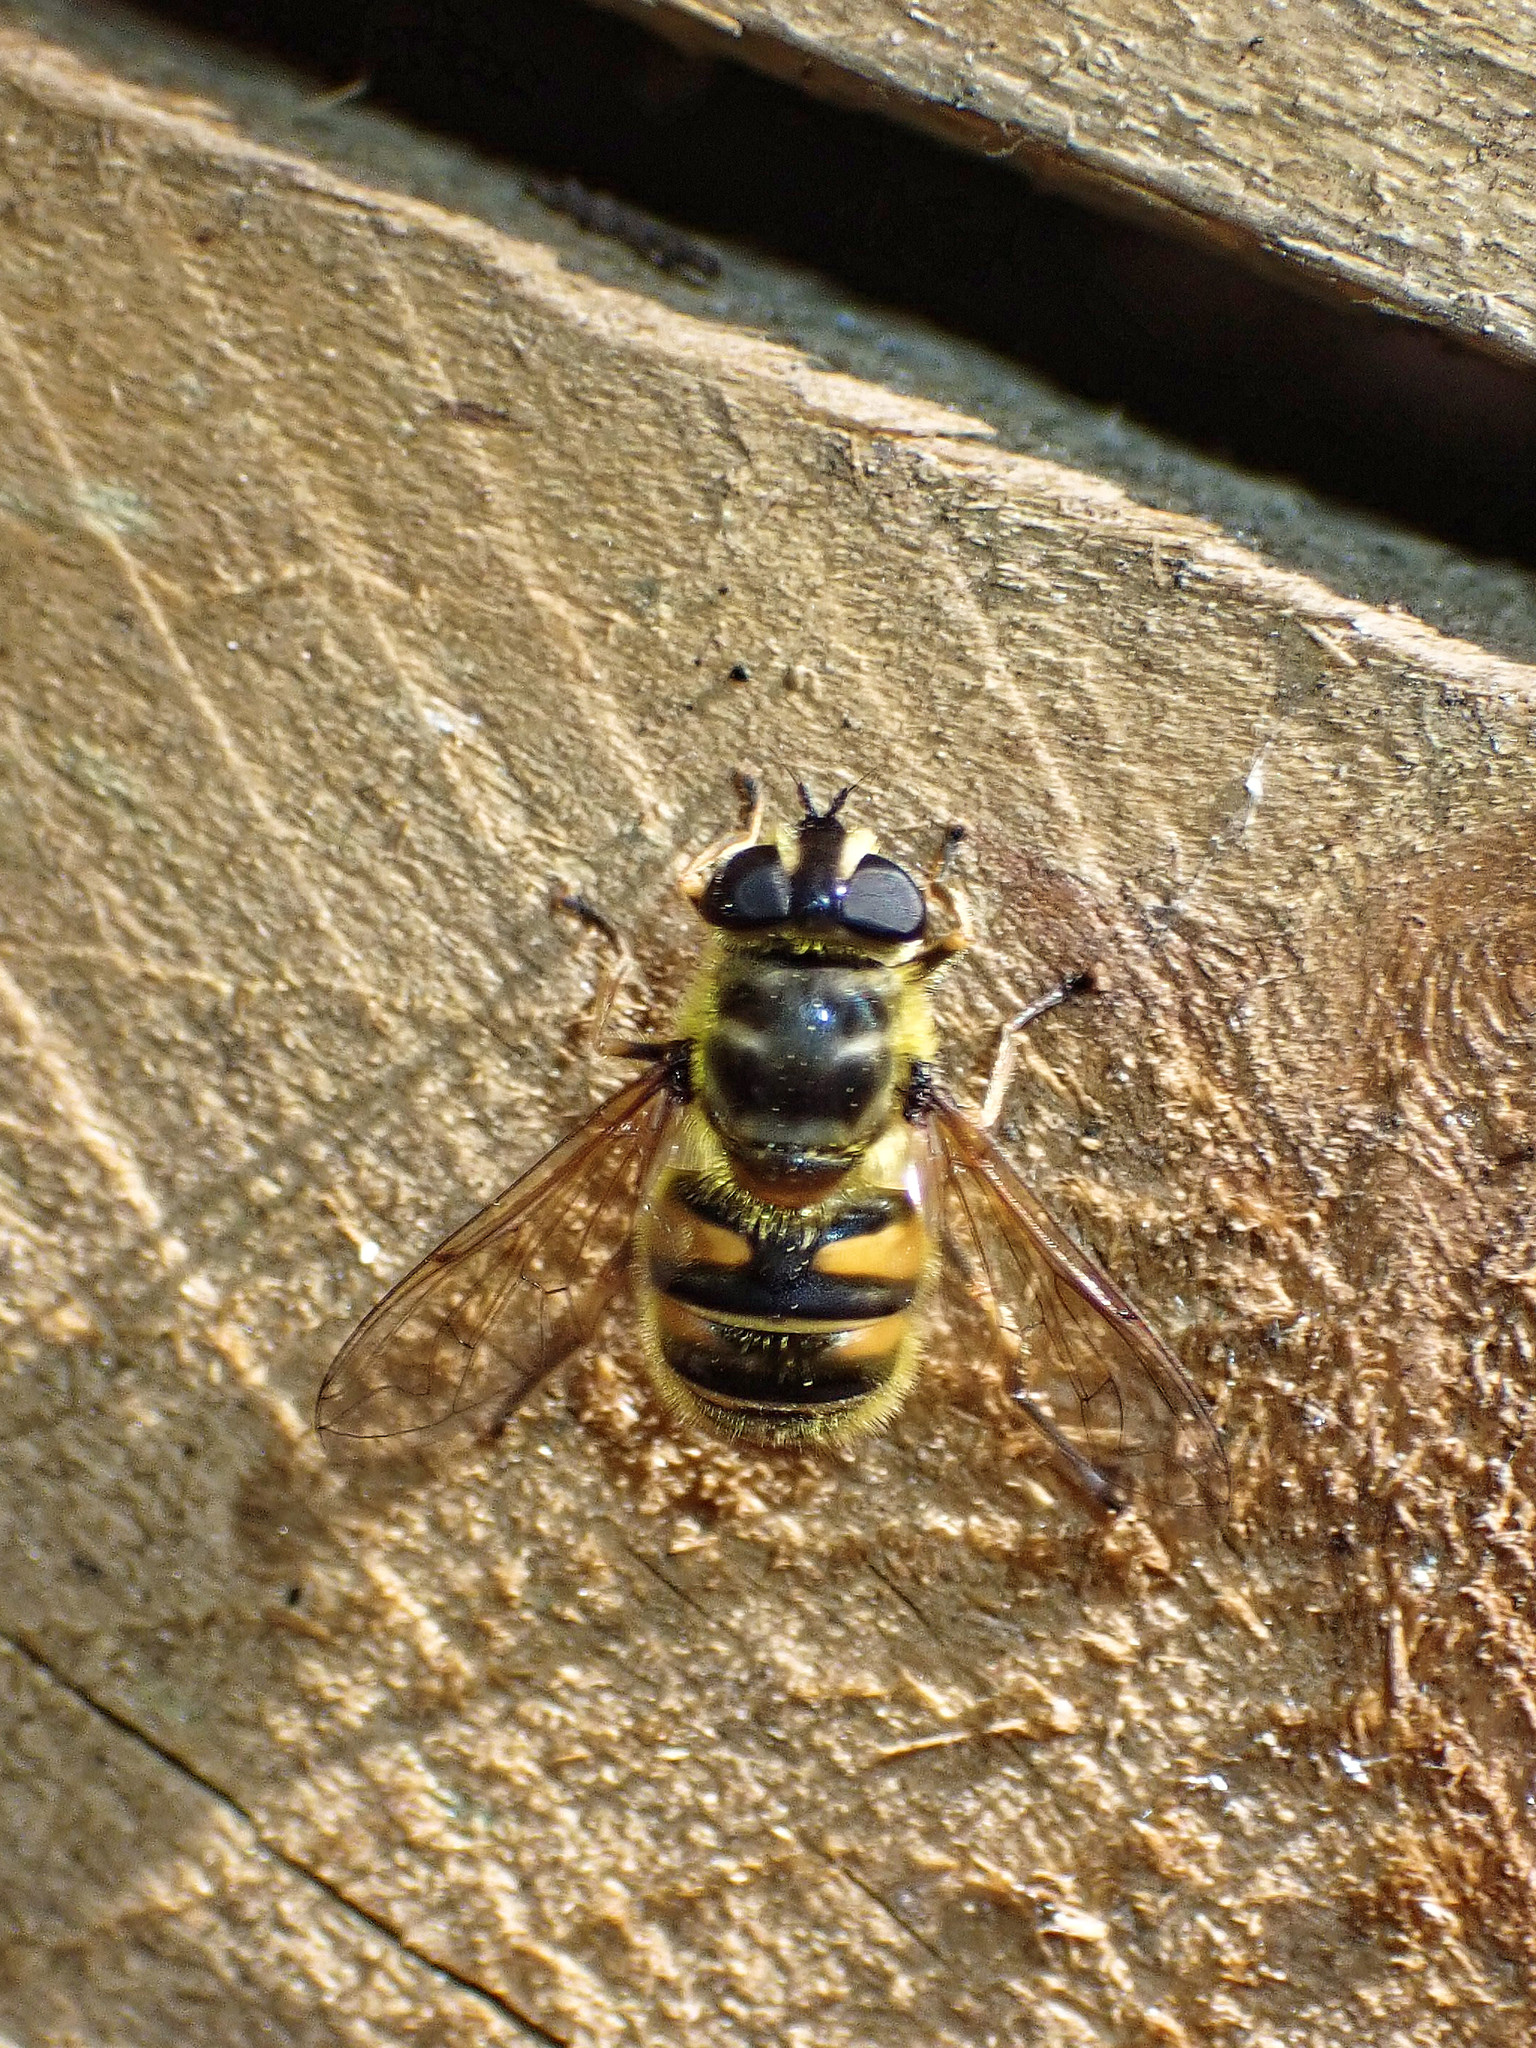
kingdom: Animalia
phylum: Arthropoda
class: Insecta
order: Diptera
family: Syrphidae
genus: Myathropa
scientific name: Myathropa florea
